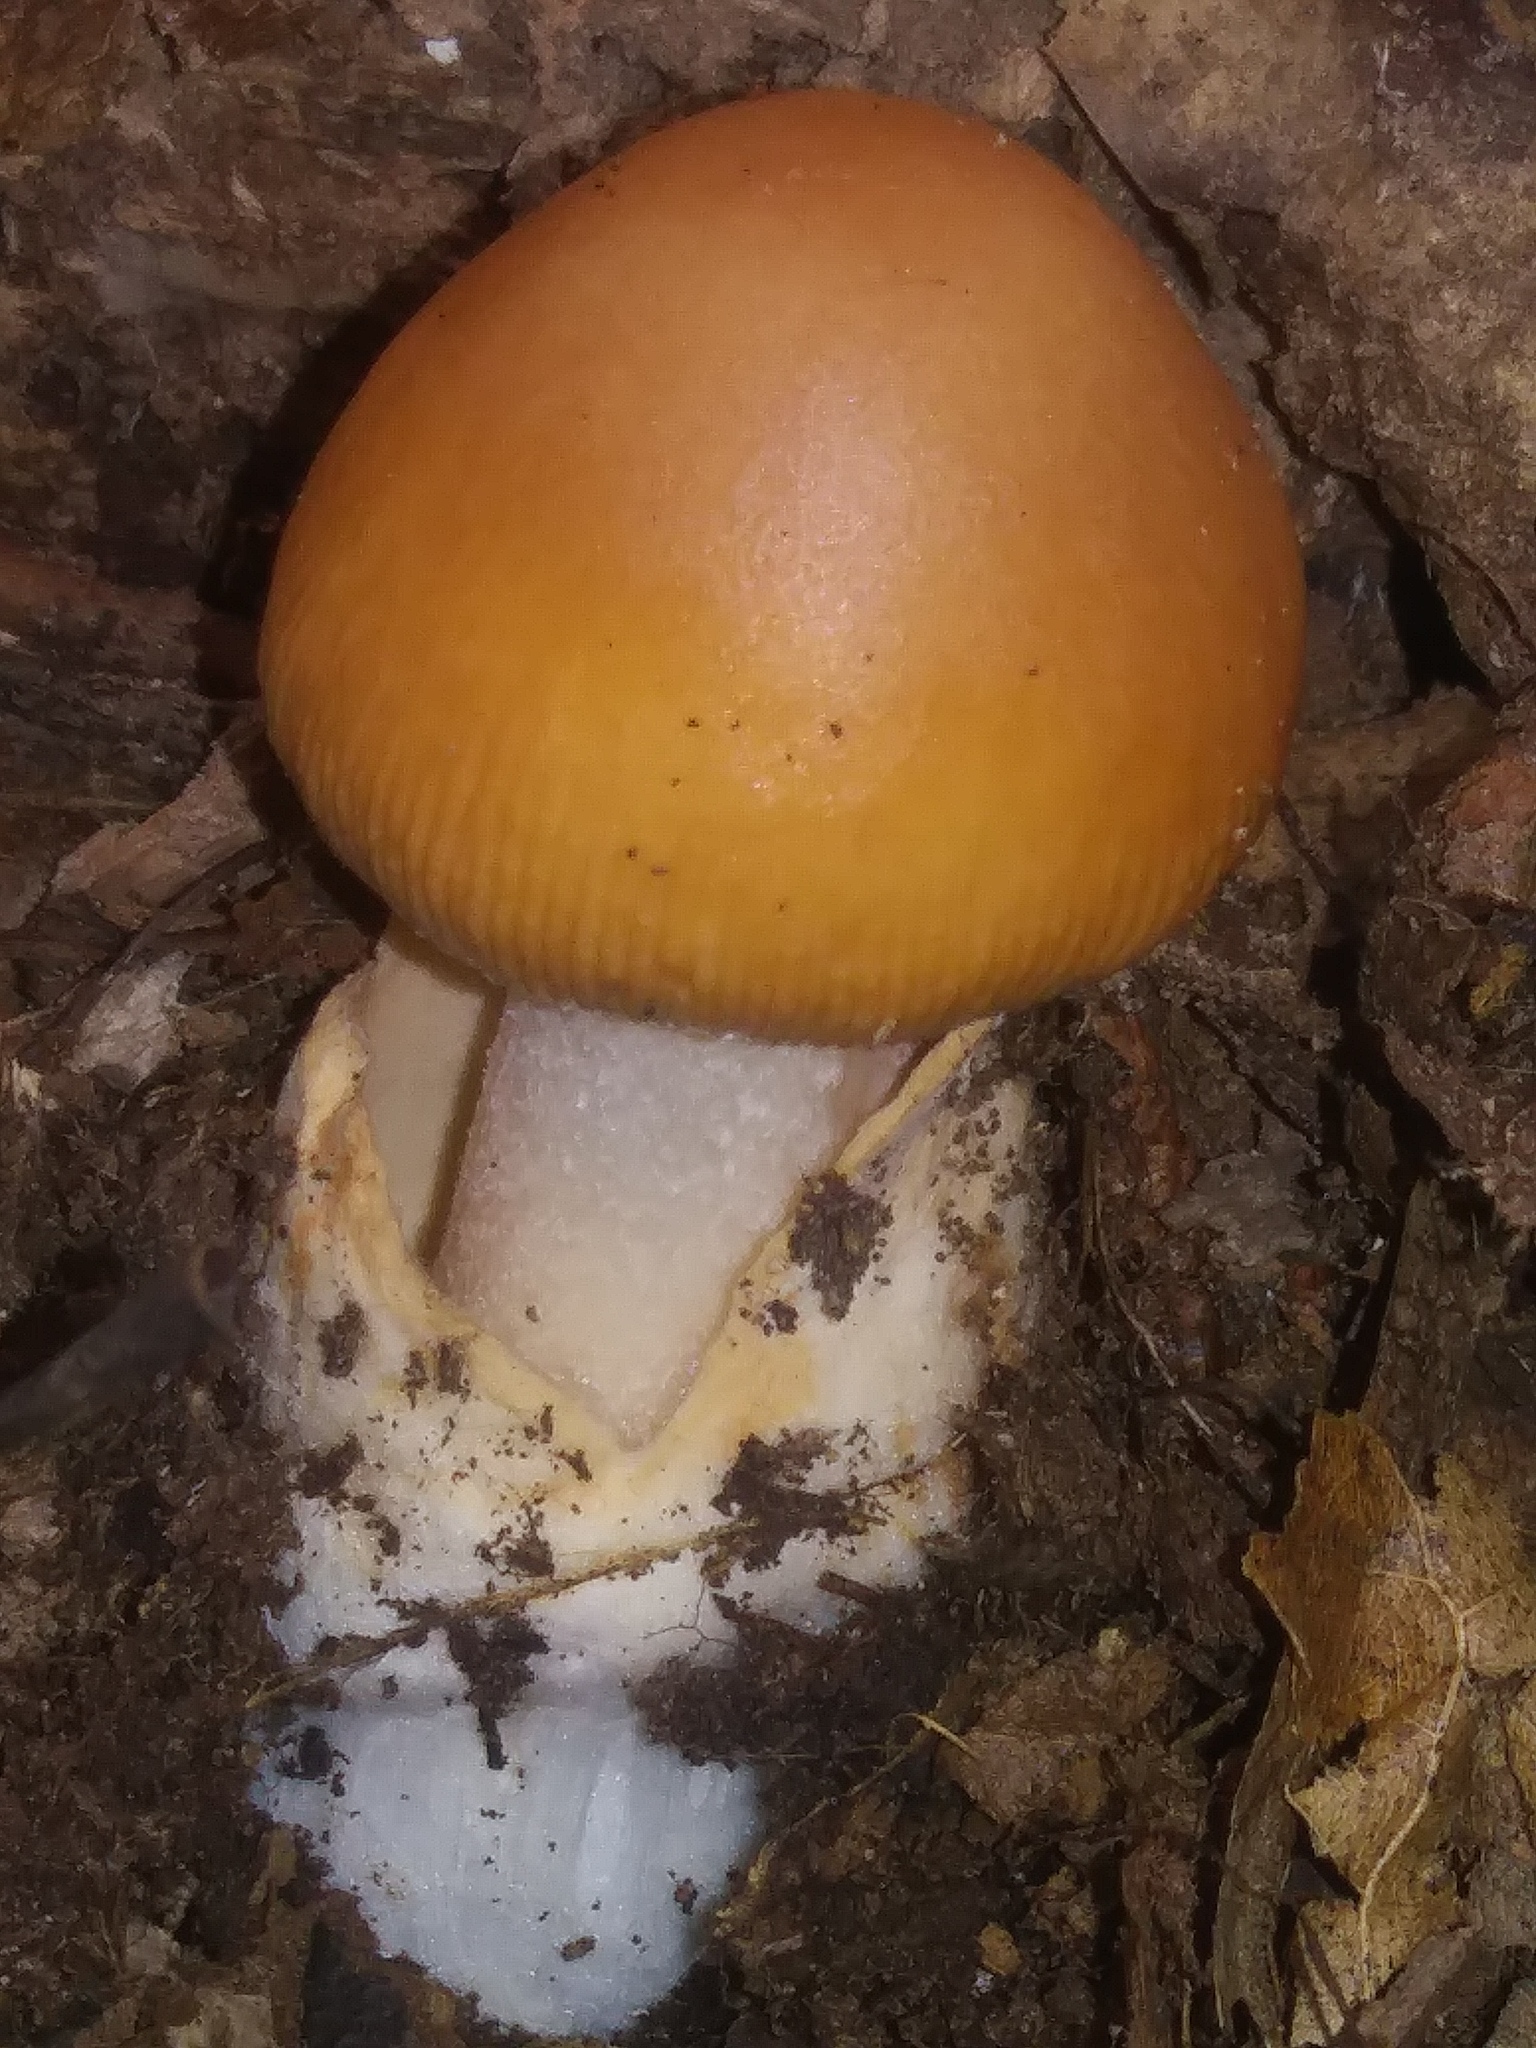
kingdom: Fungi
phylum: Basidiomycota
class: Agaricomycetes
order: Agaricales
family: Amanitaceae
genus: Amanita
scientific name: Amanita fulva
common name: Tawny grisette
